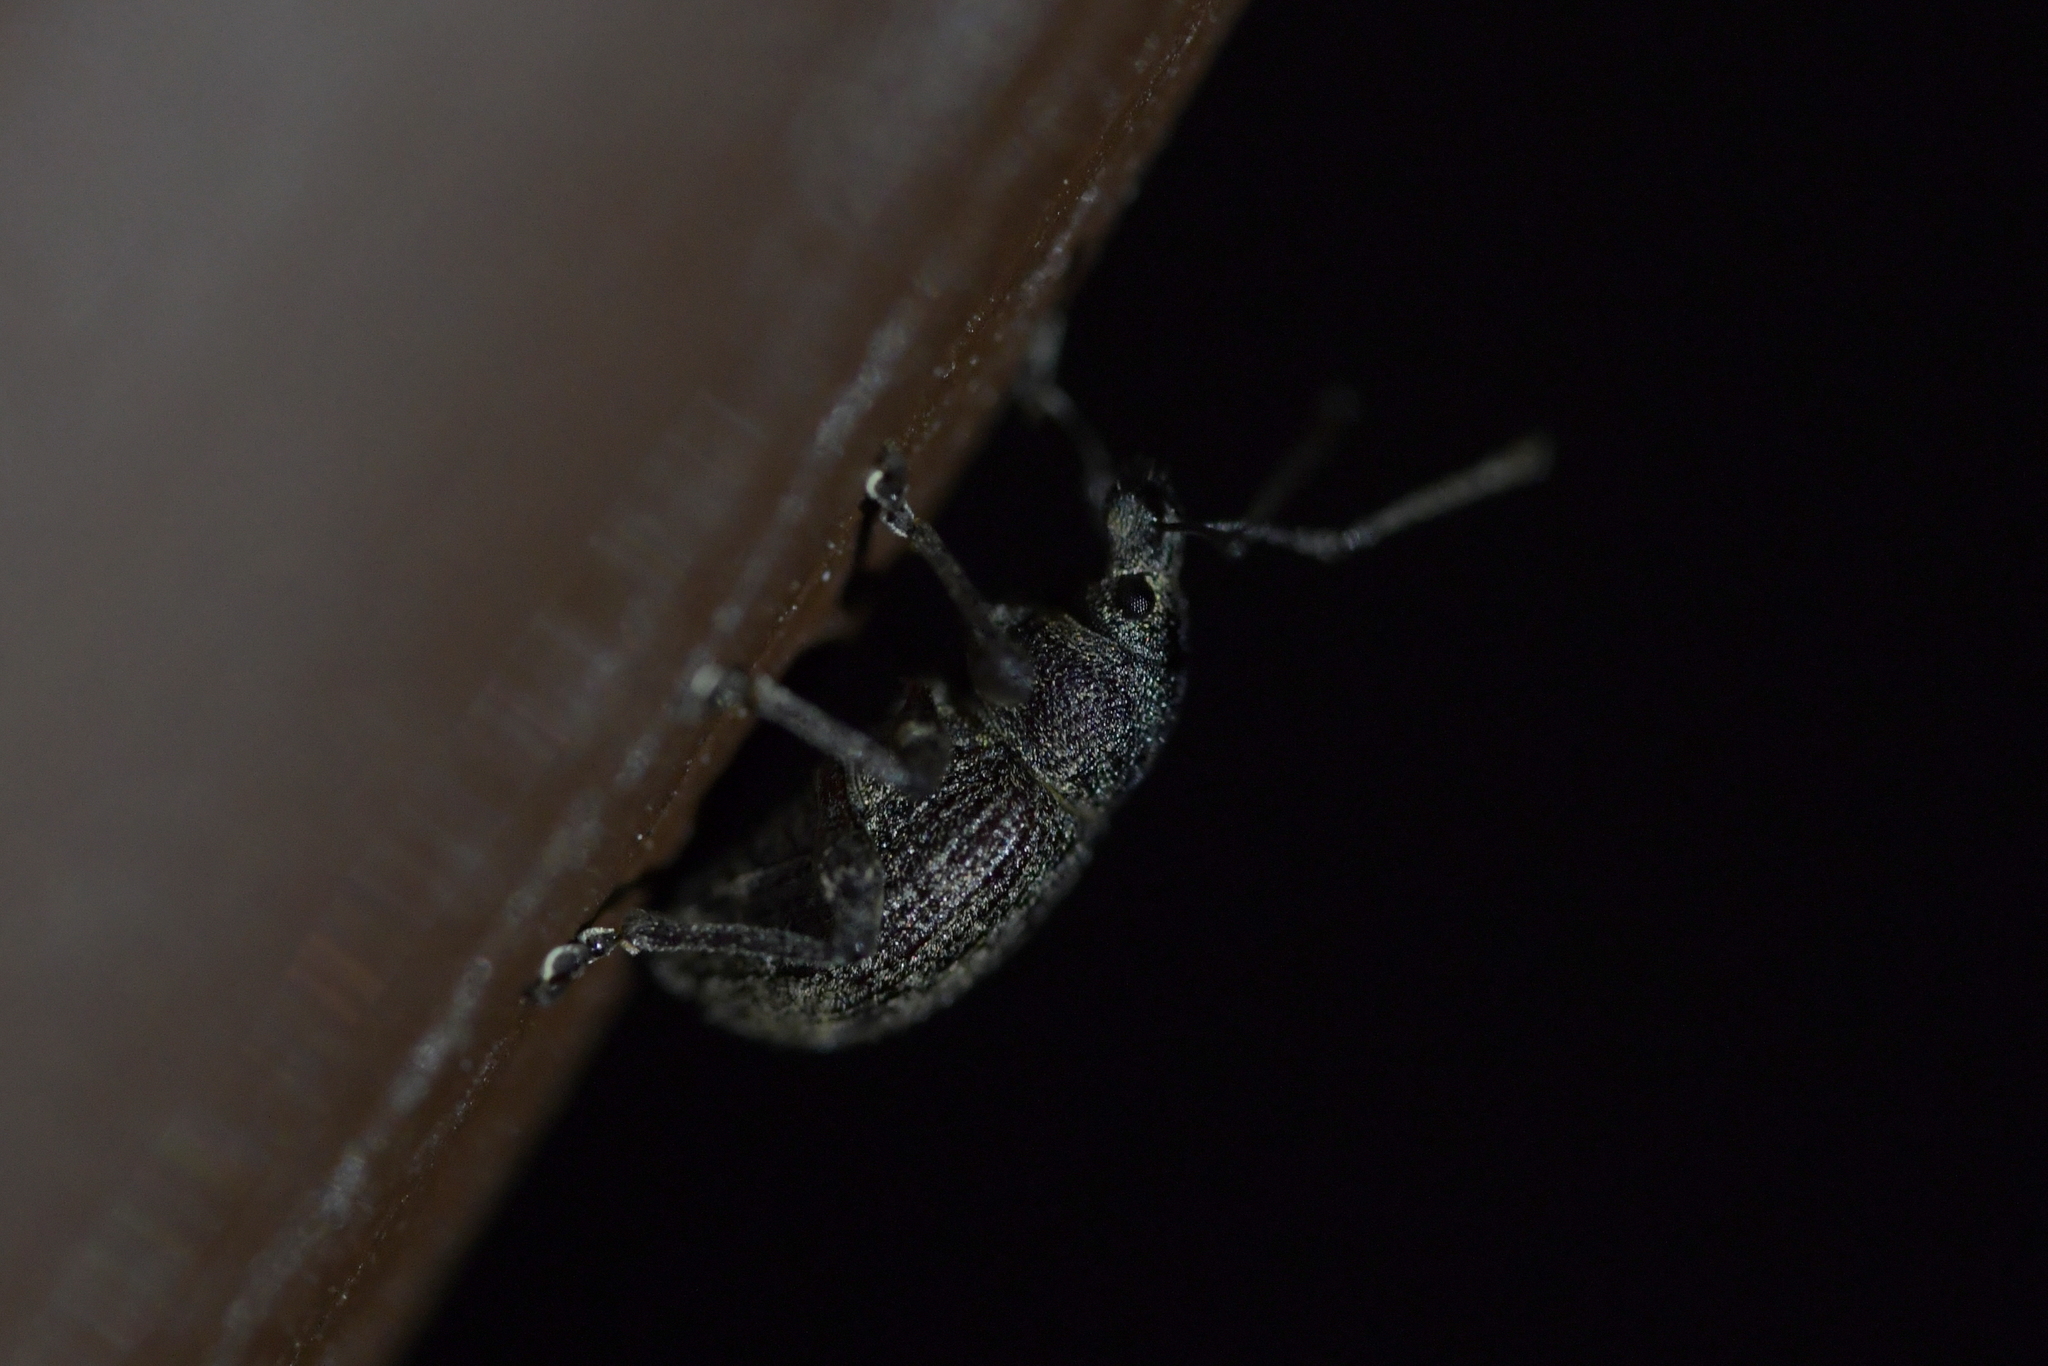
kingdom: Animalia
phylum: Arthropoda
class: Insecta
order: Coleoptera
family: Curculionidae
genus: Phlyctinus
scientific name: Phlyctinus callosus
